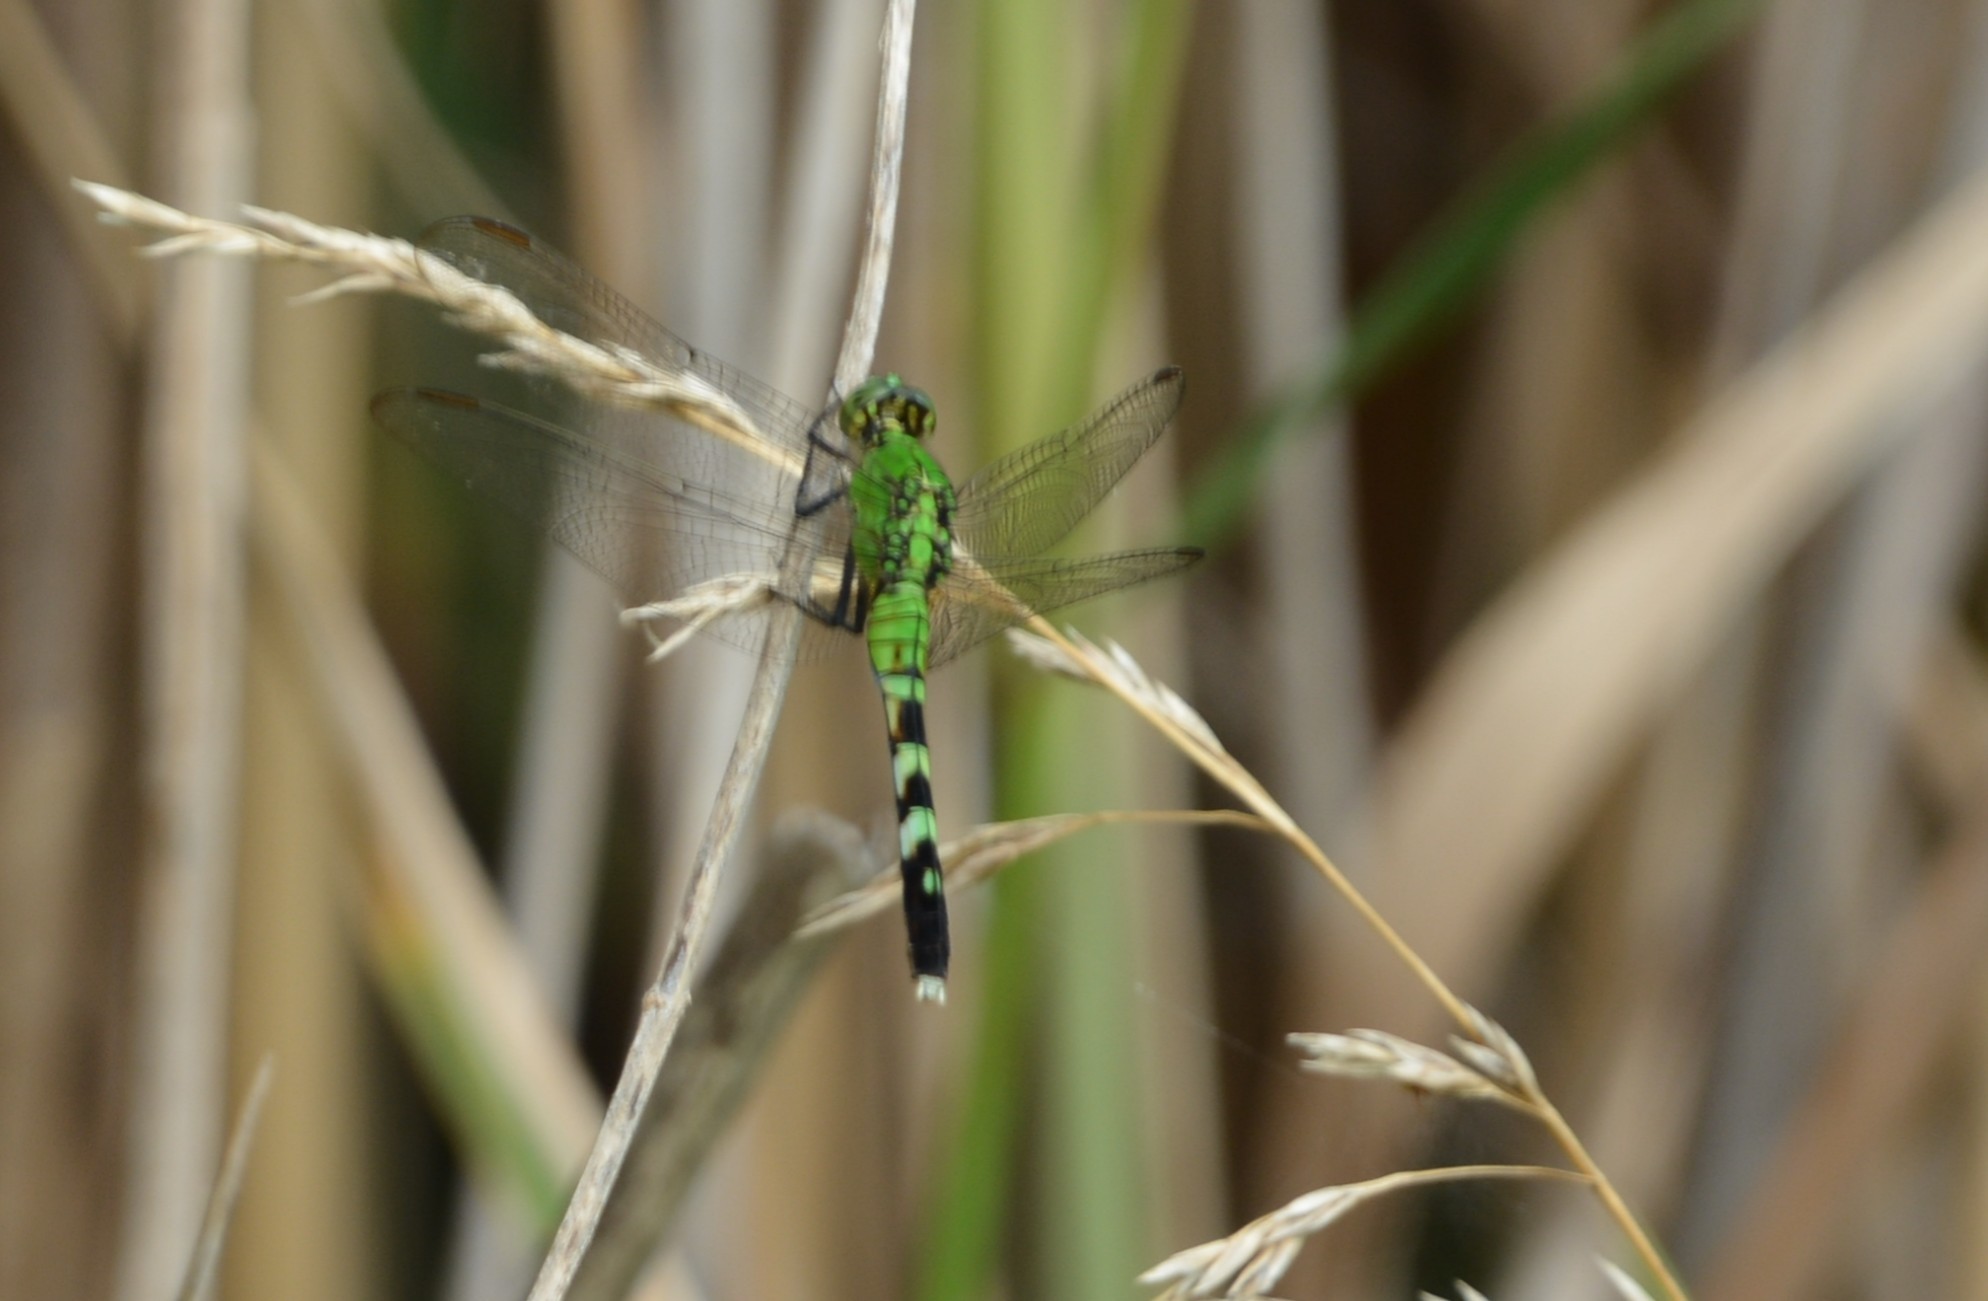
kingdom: Animalia
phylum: Arthropoda
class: Insecta
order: Odonata
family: Libellulidae
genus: Erythemis
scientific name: Erythemis simplicicollis
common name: Eastern pondhawk
